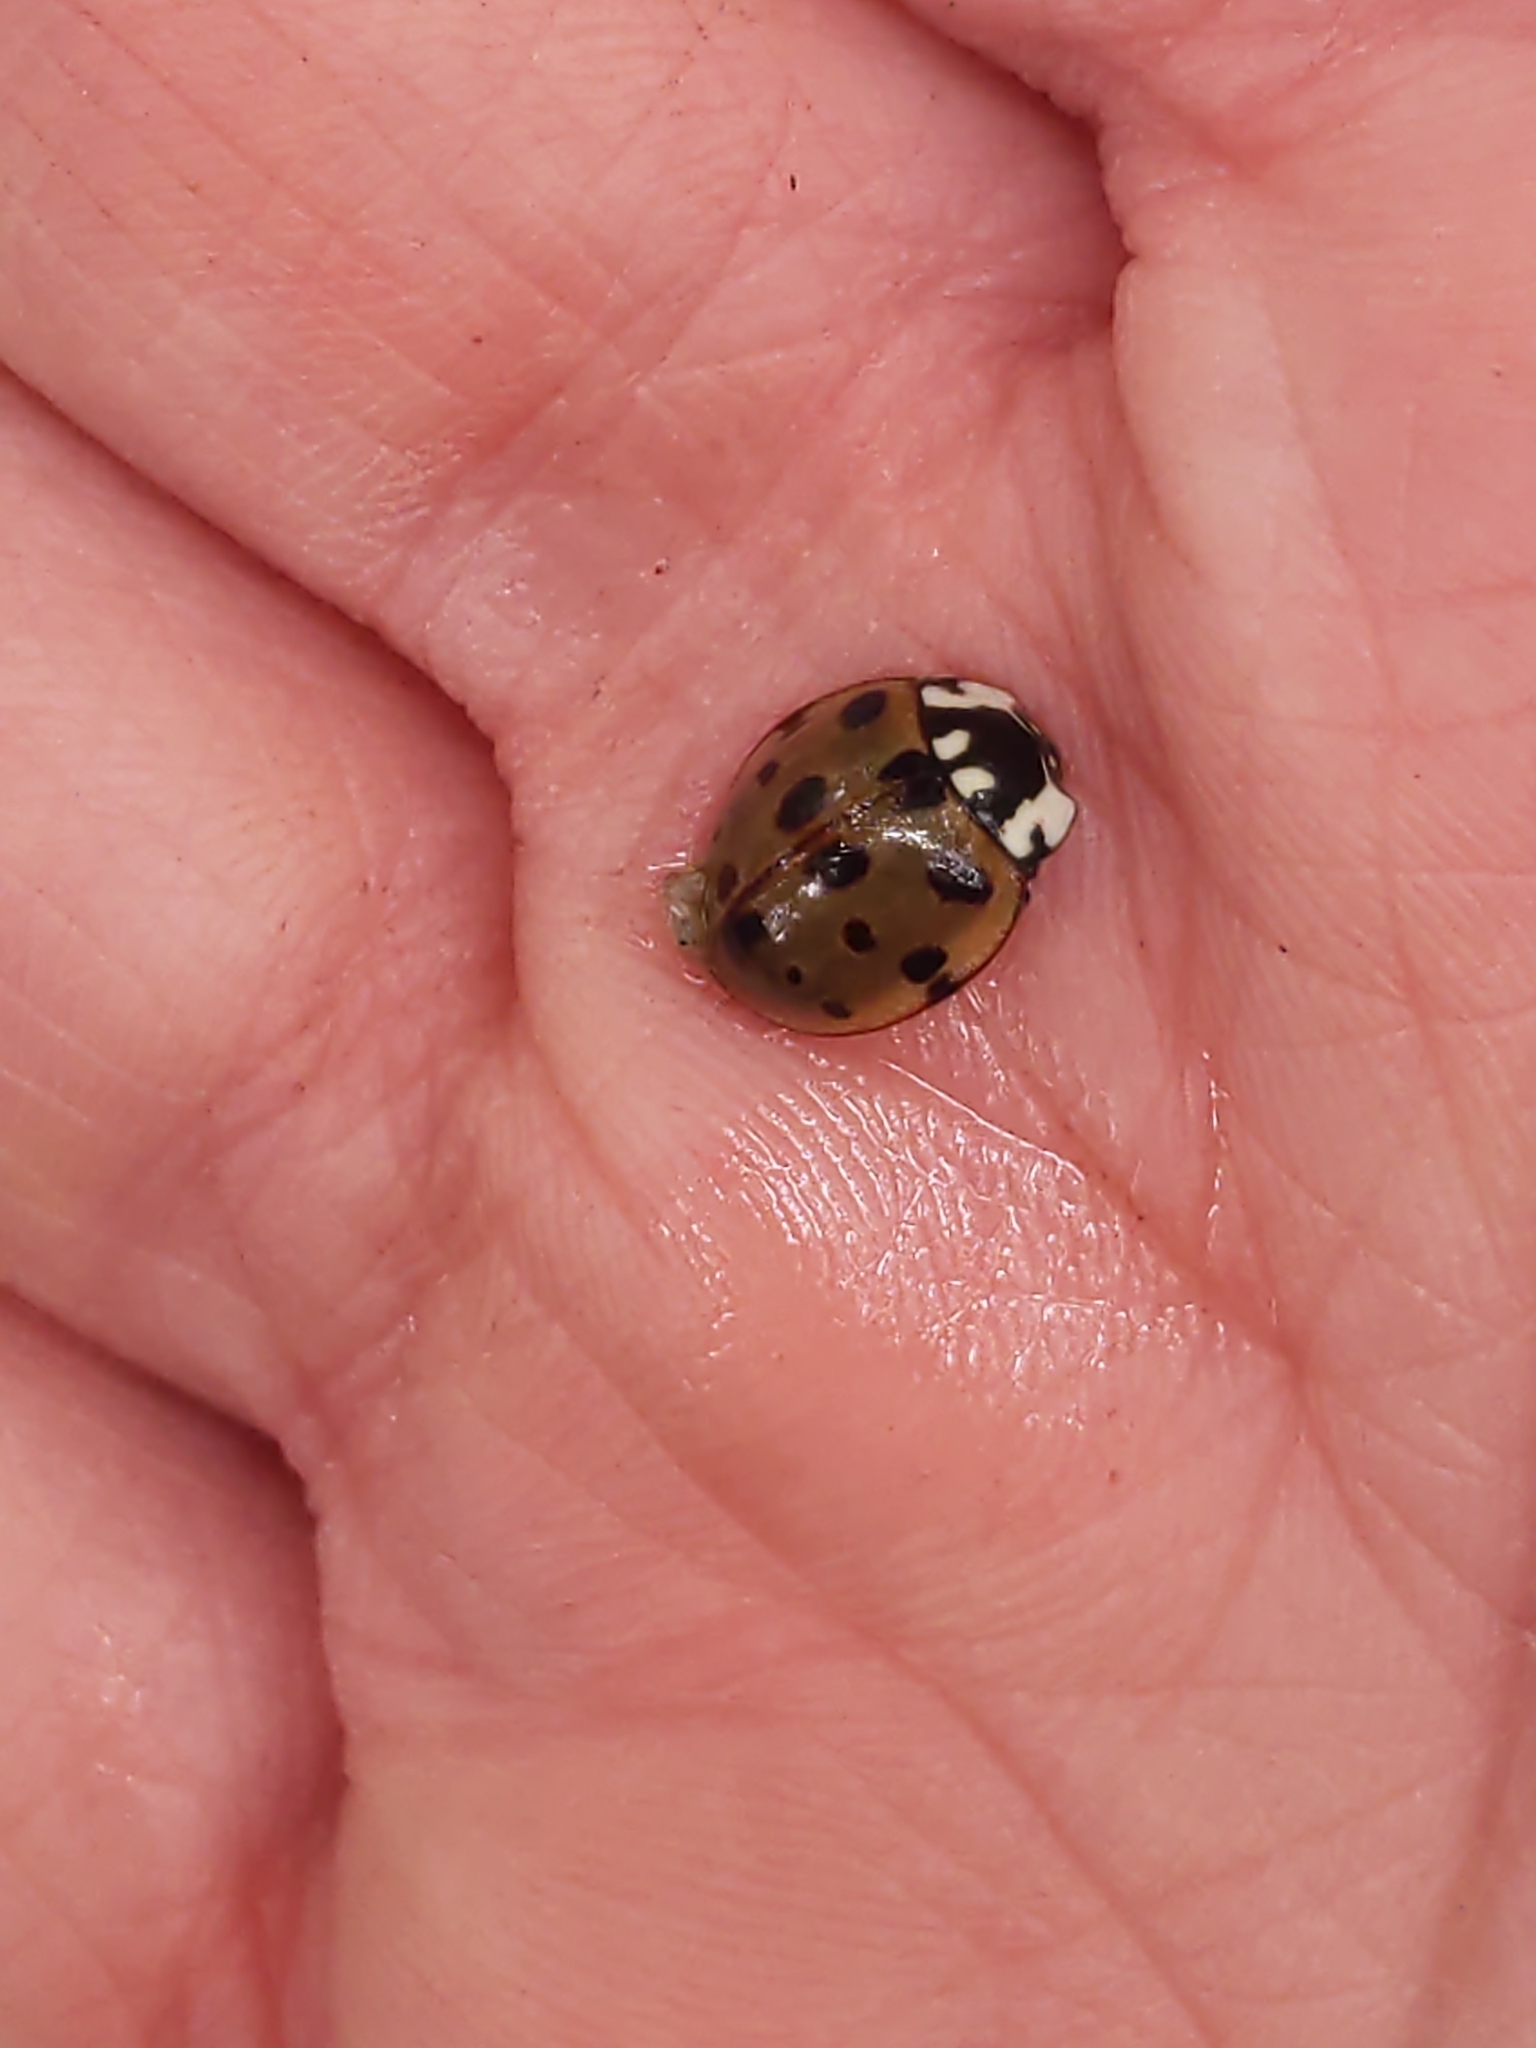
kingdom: Animalia
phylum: Arthropoda
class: Insecta
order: Coleoptera
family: Coccinellidae
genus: Anatis
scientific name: Anatis labiculata
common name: Fifteen-spotted lady beetle
